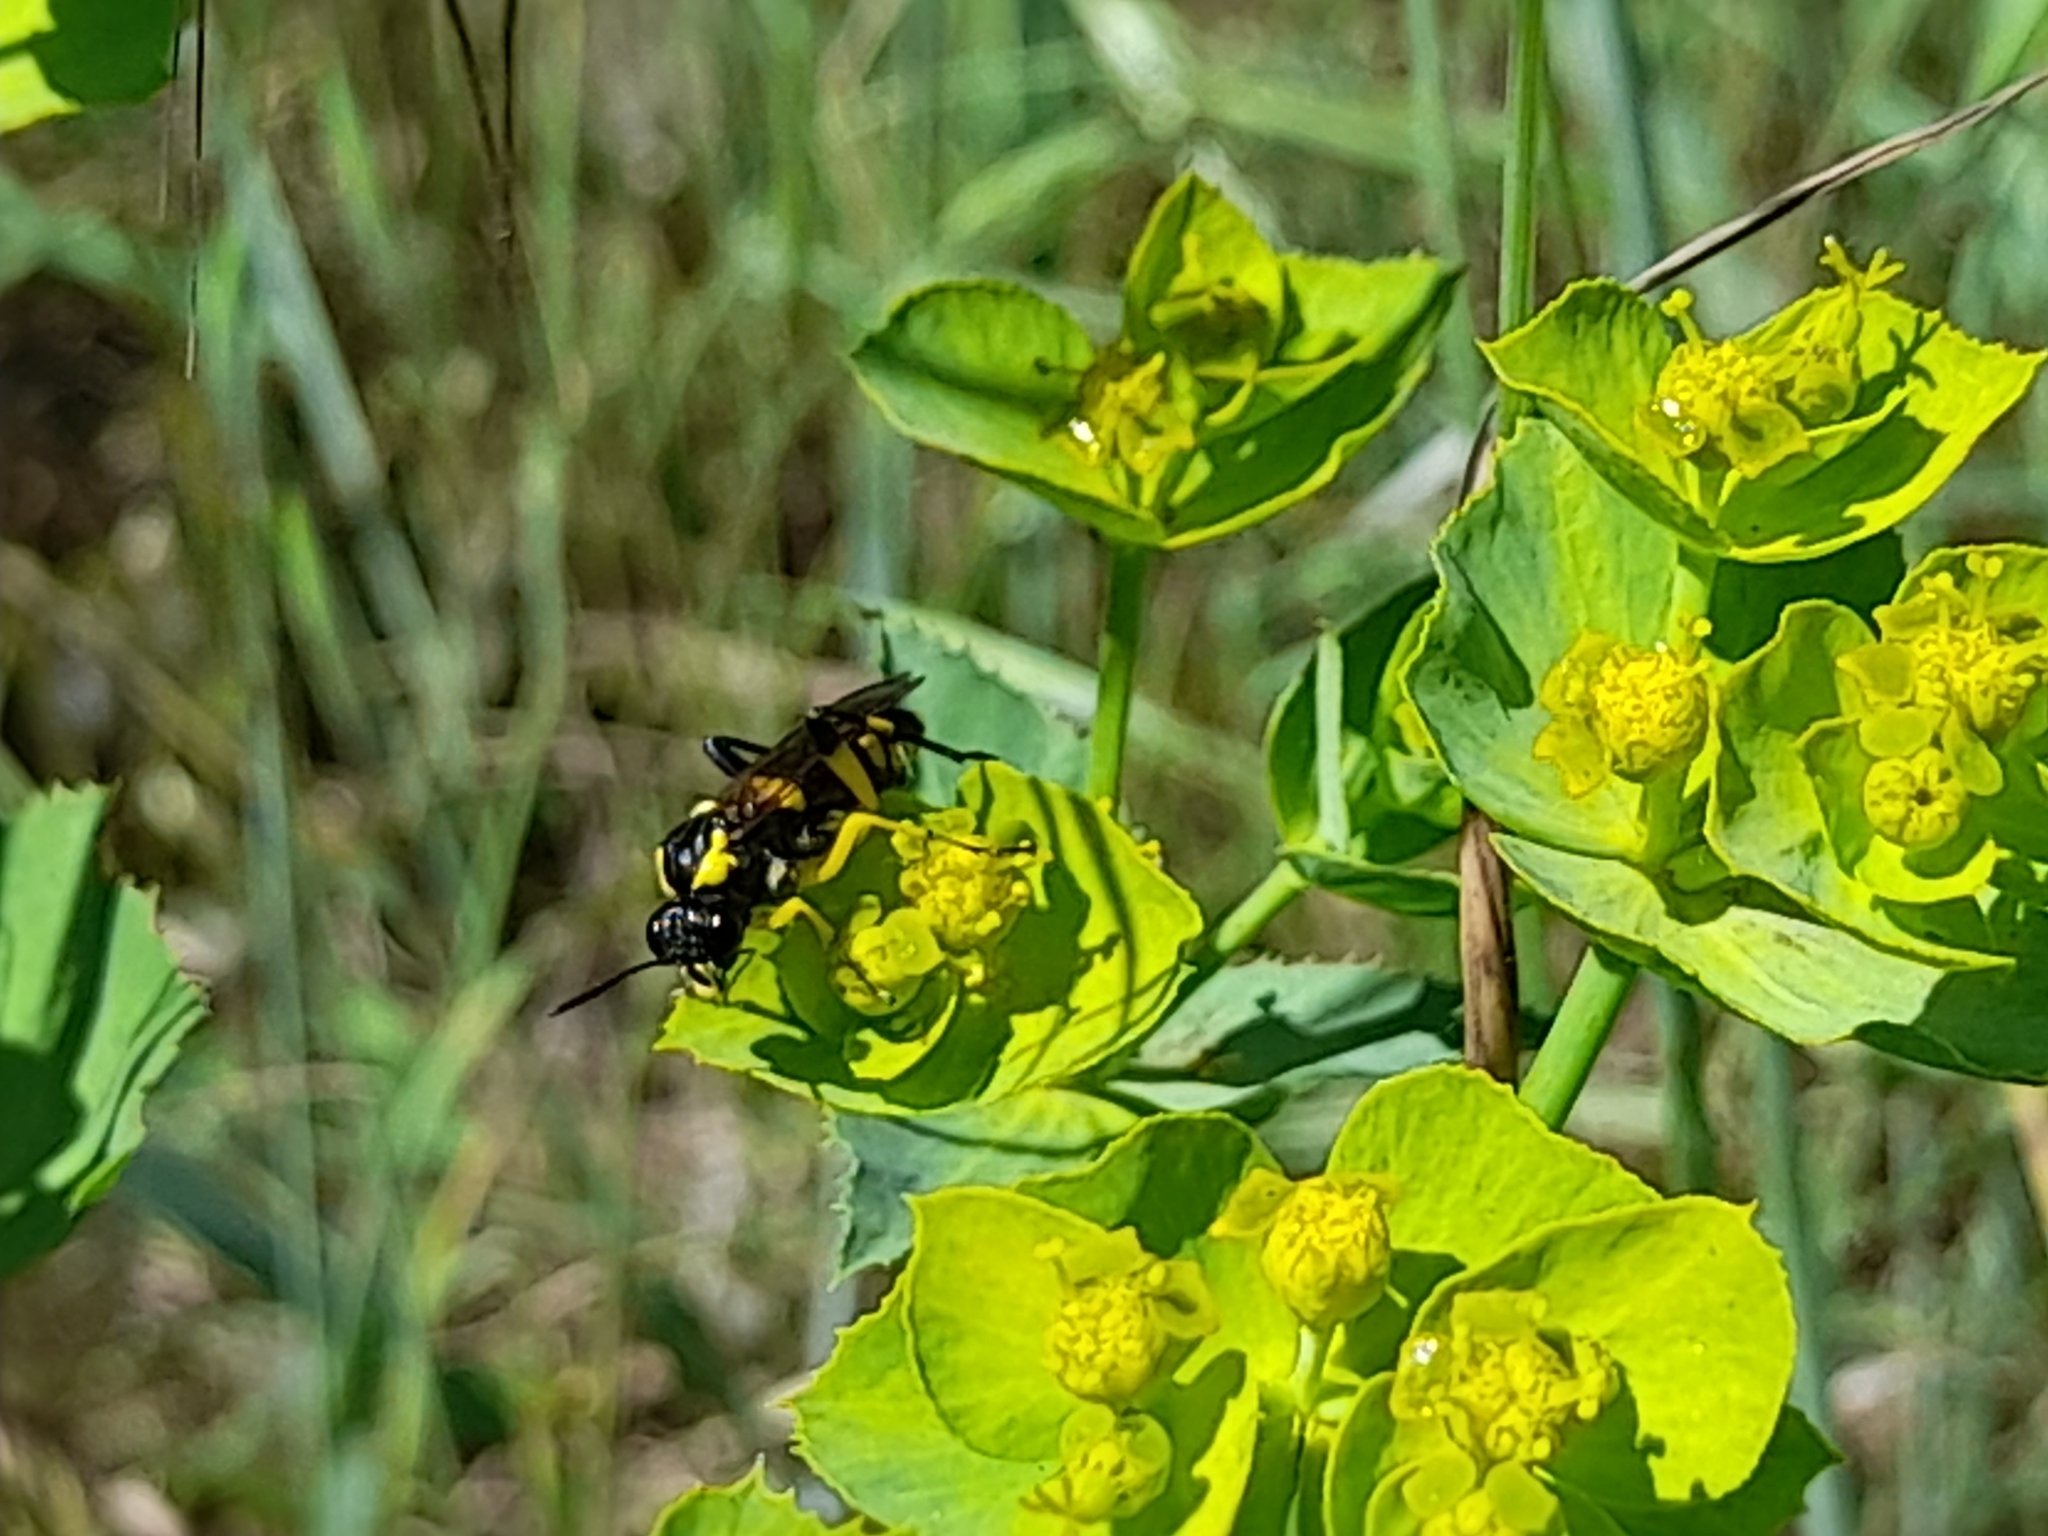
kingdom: Animalia
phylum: Arthropoda
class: Insecta
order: Hymenoptera
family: Tenthredinidae
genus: Macrophya
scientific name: Macrophya montana
